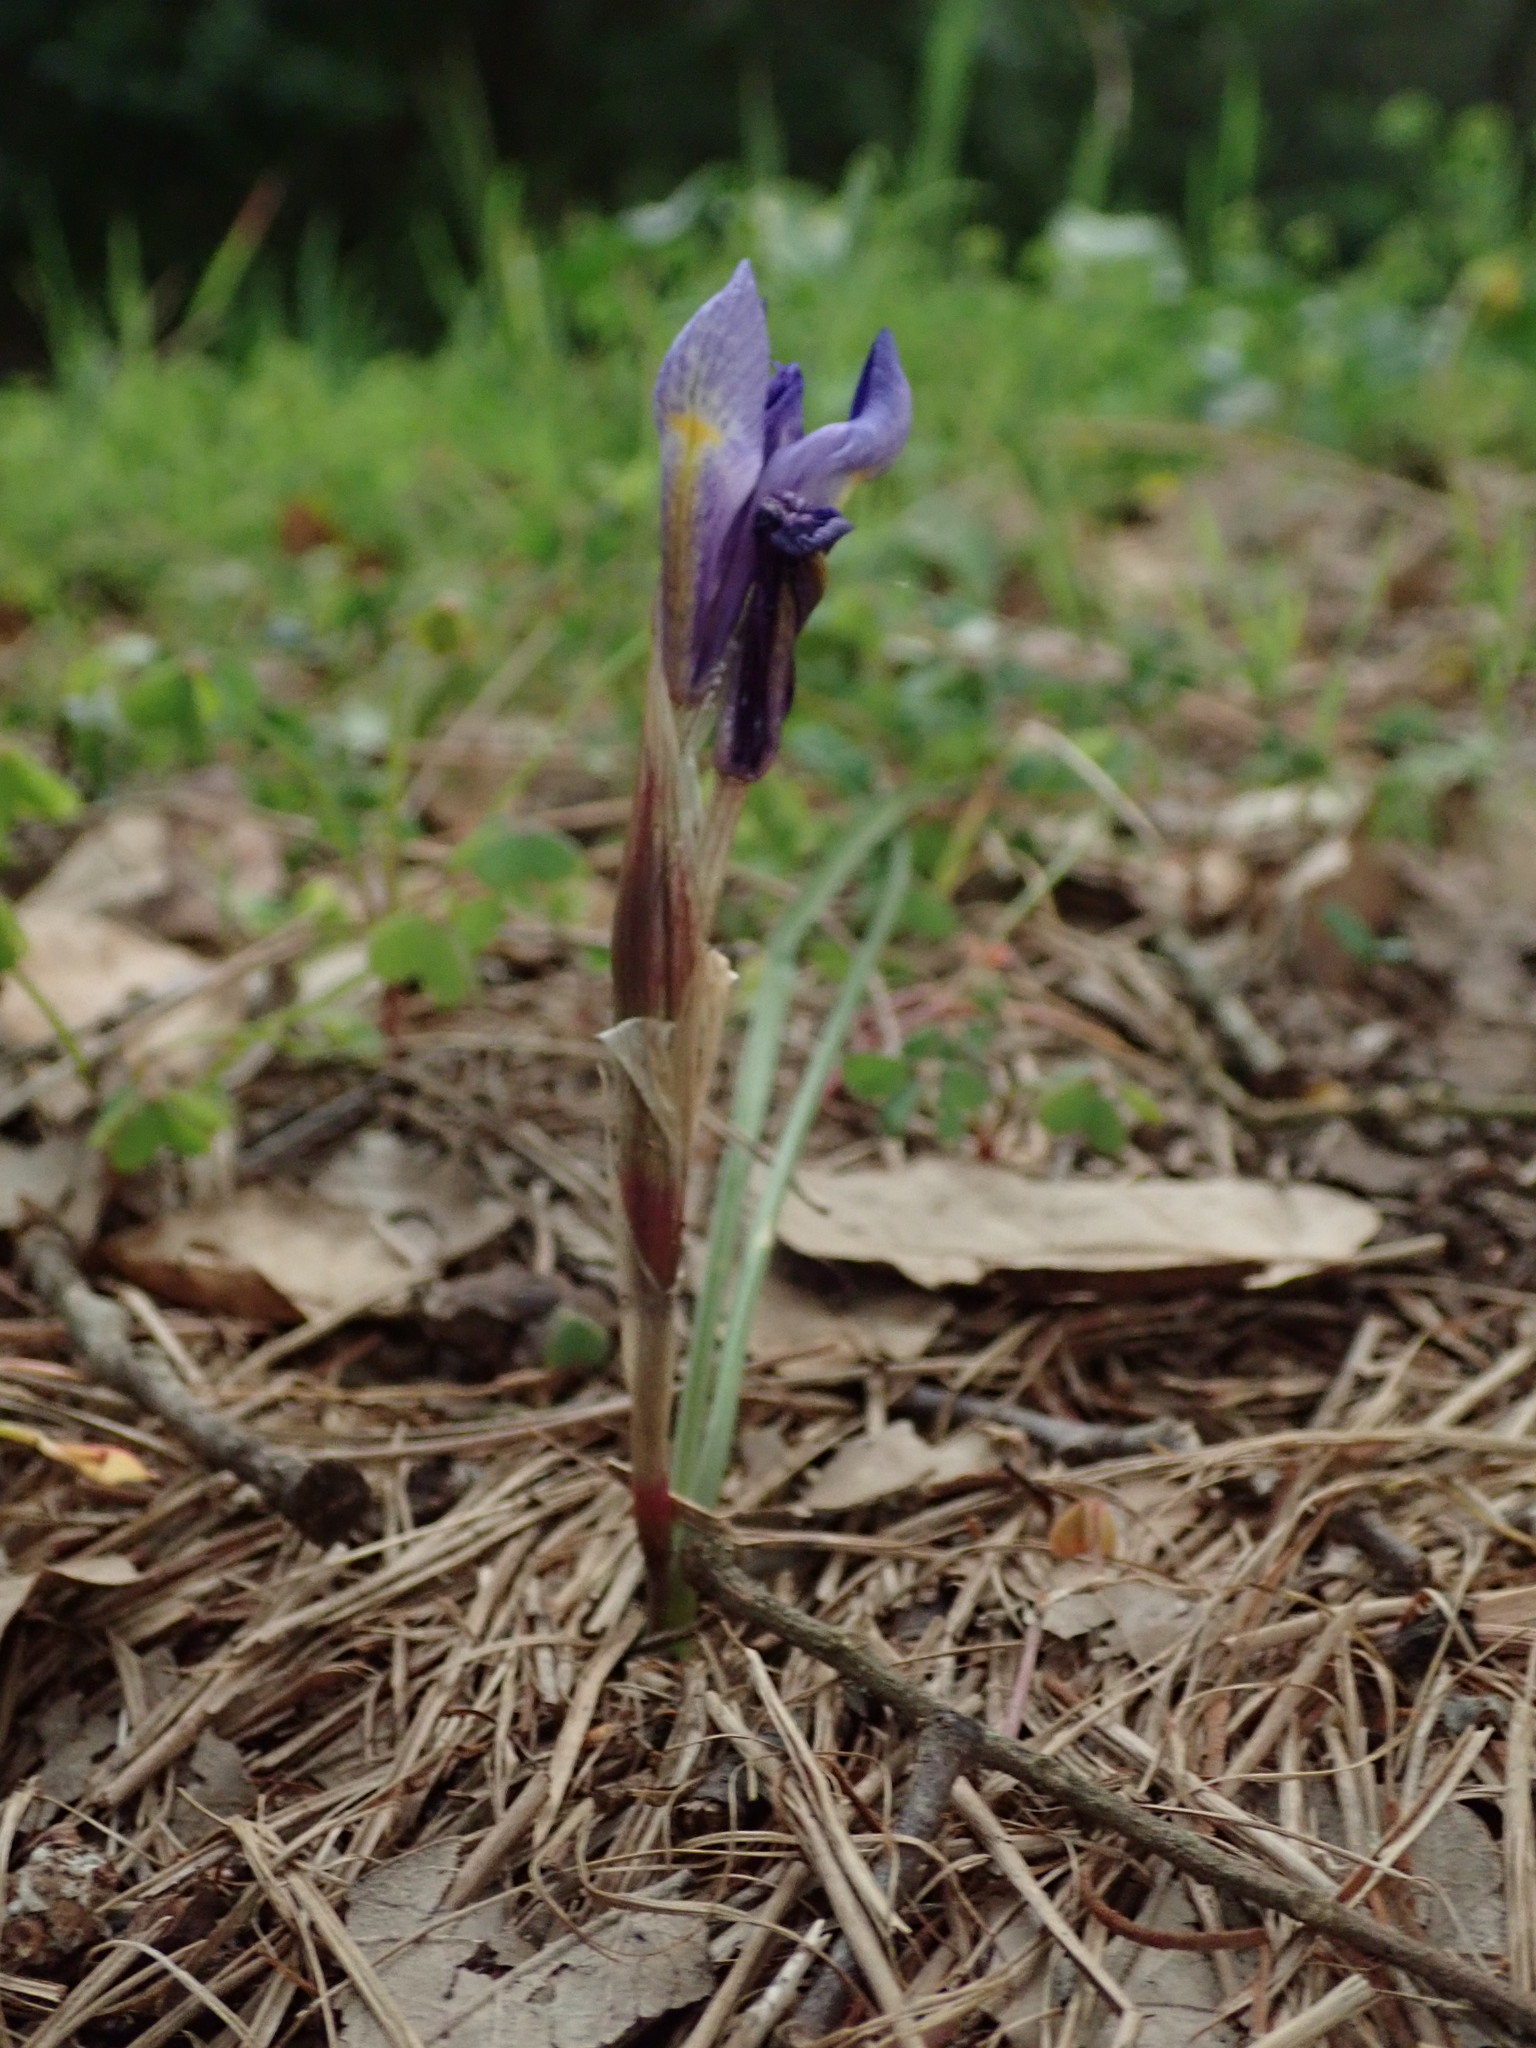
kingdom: Plantae
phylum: Tracheophyta
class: Liliopsida
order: Asparagales
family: Iridaceae
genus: Moraea
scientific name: Moraea sisyrinchium
